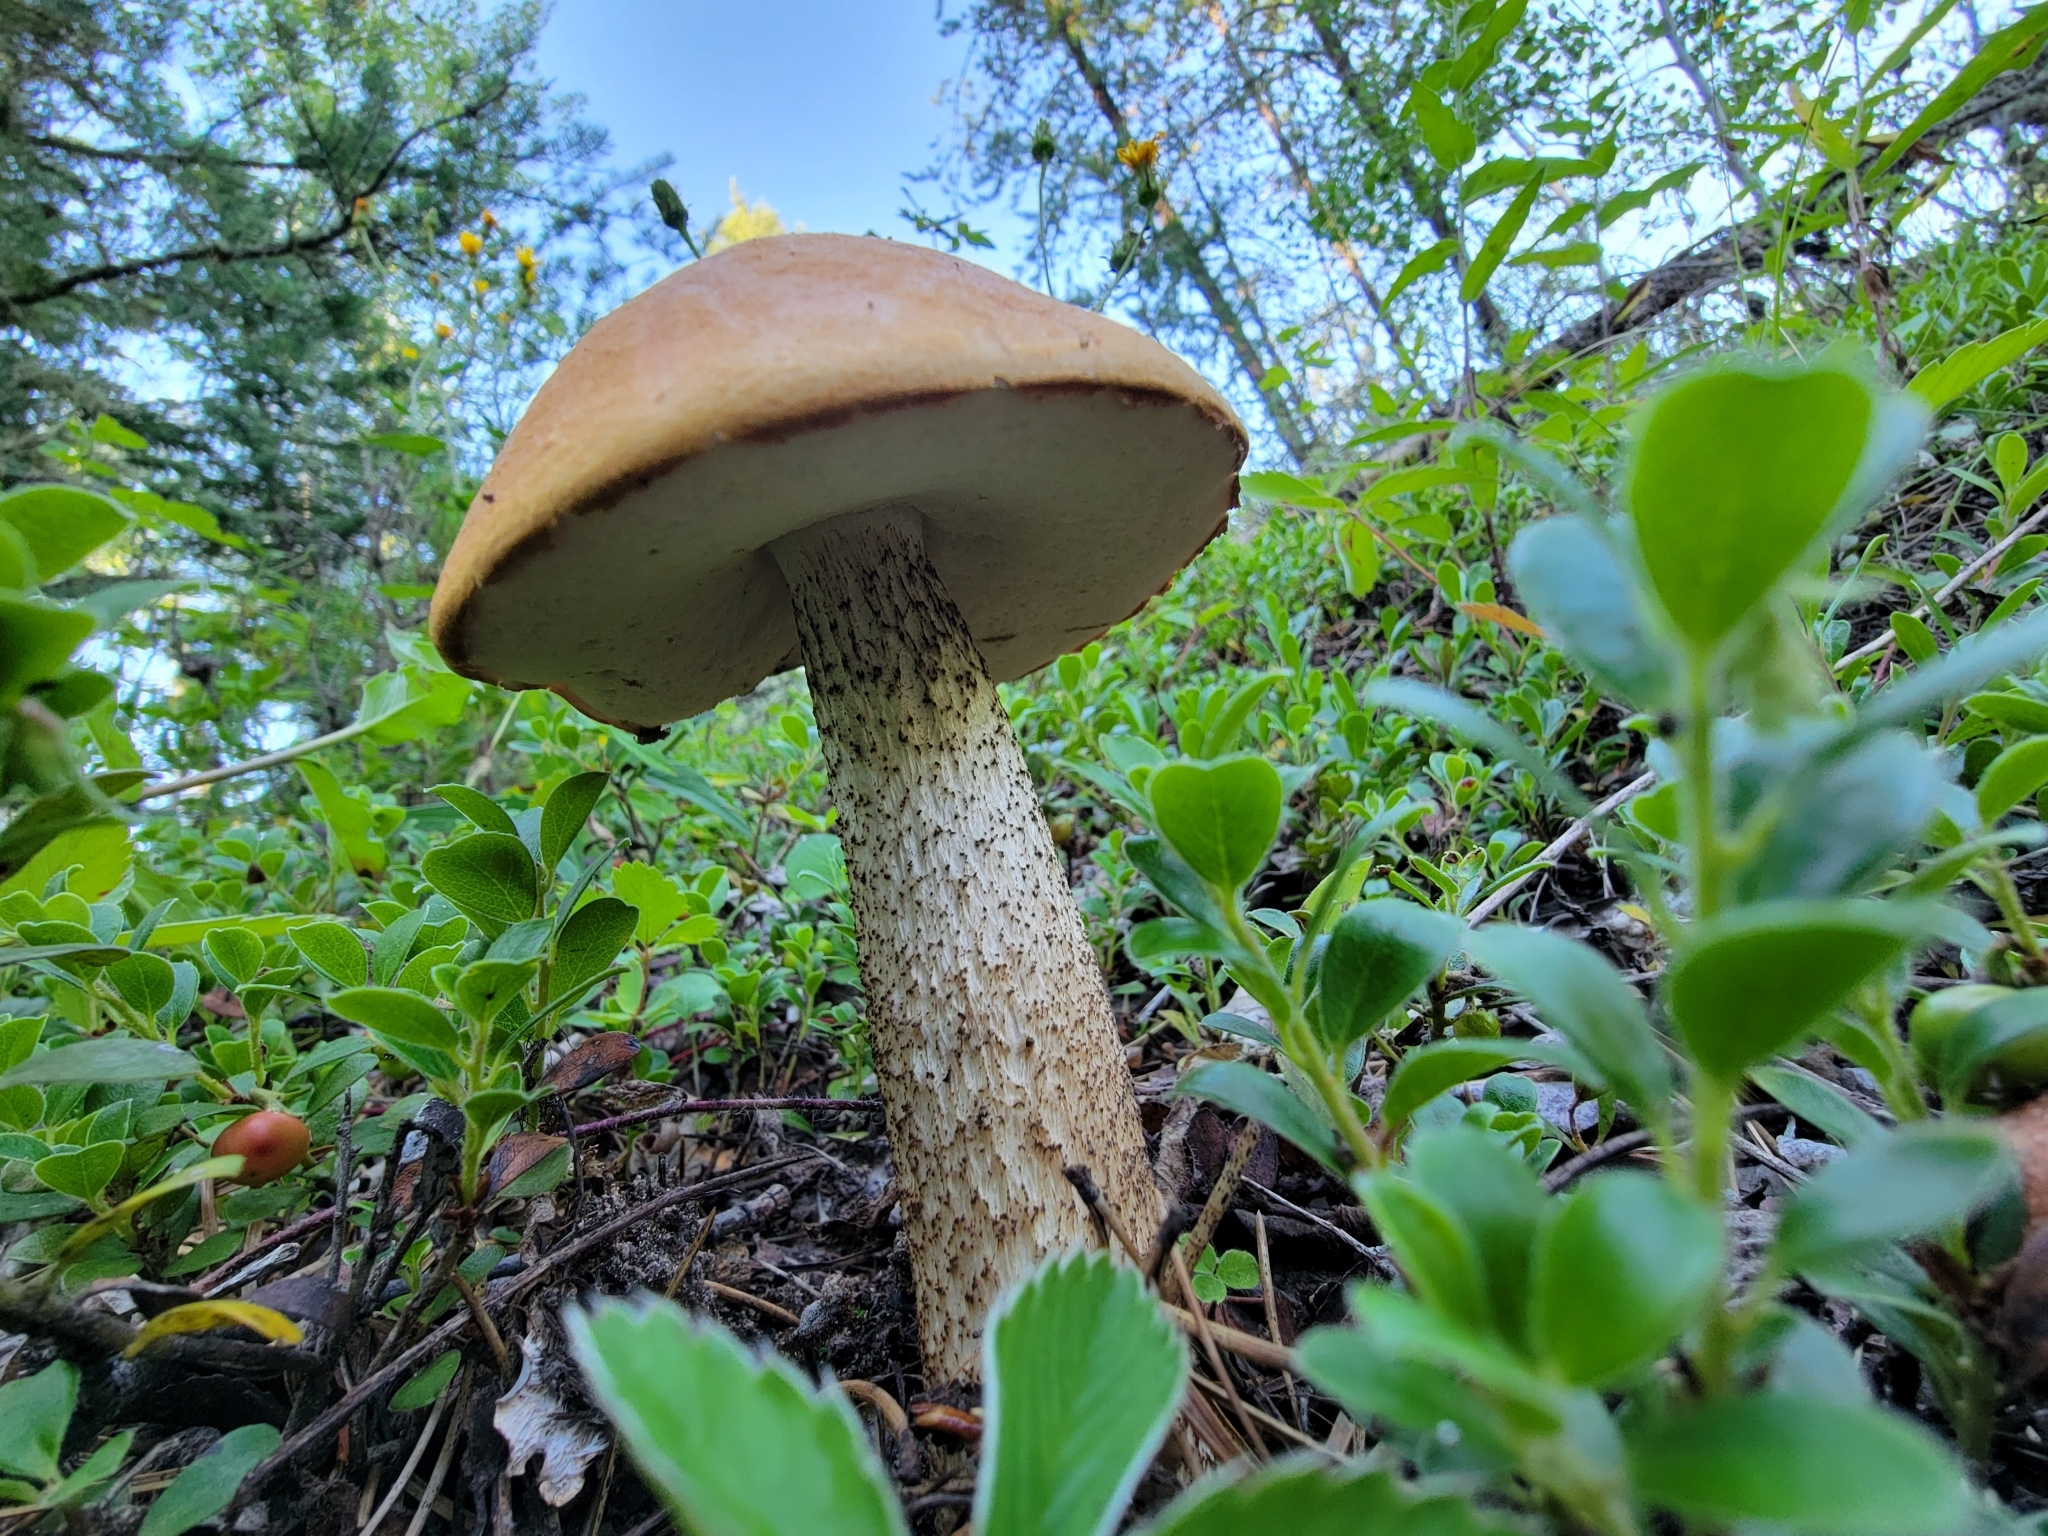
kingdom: Fungi
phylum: Basidiomycota
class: Agaricomycetes
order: Boletales
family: Boletaceae
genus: Leccinum
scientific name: Leccinum insigne
